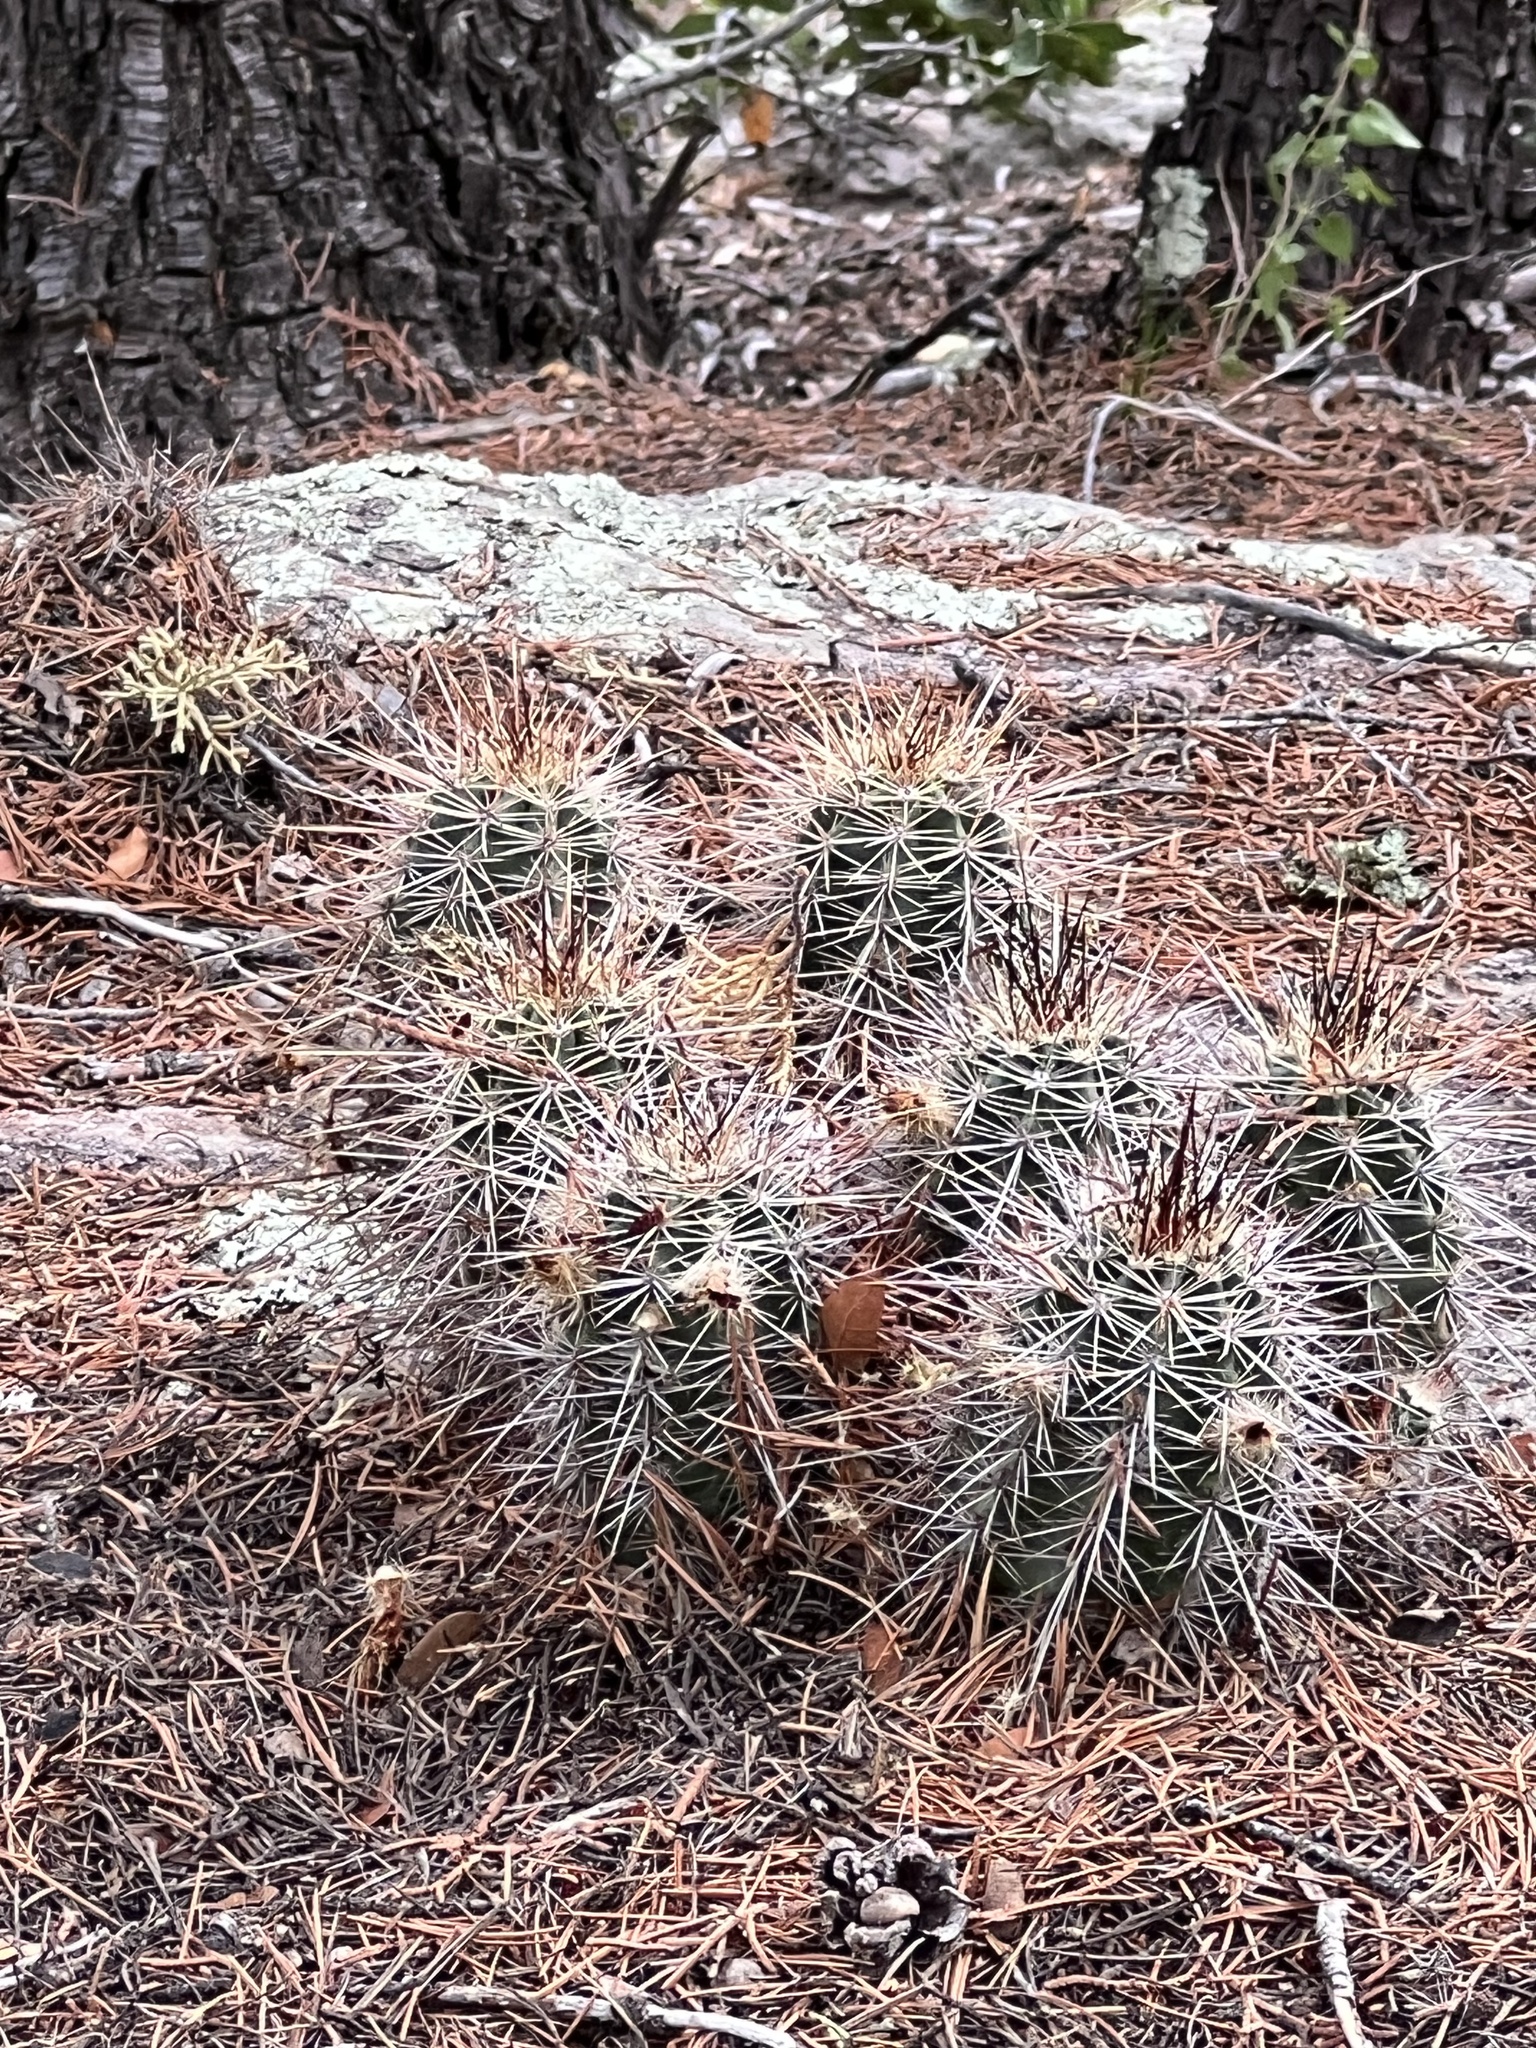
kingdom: Plantae
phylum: Tracheophyta
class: Magnoliopsida
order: Caryophyllales
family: Cactaceae
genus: Echinocereus
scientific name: Echinocereus coccineus
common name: Scarlet hedgehog cactus
